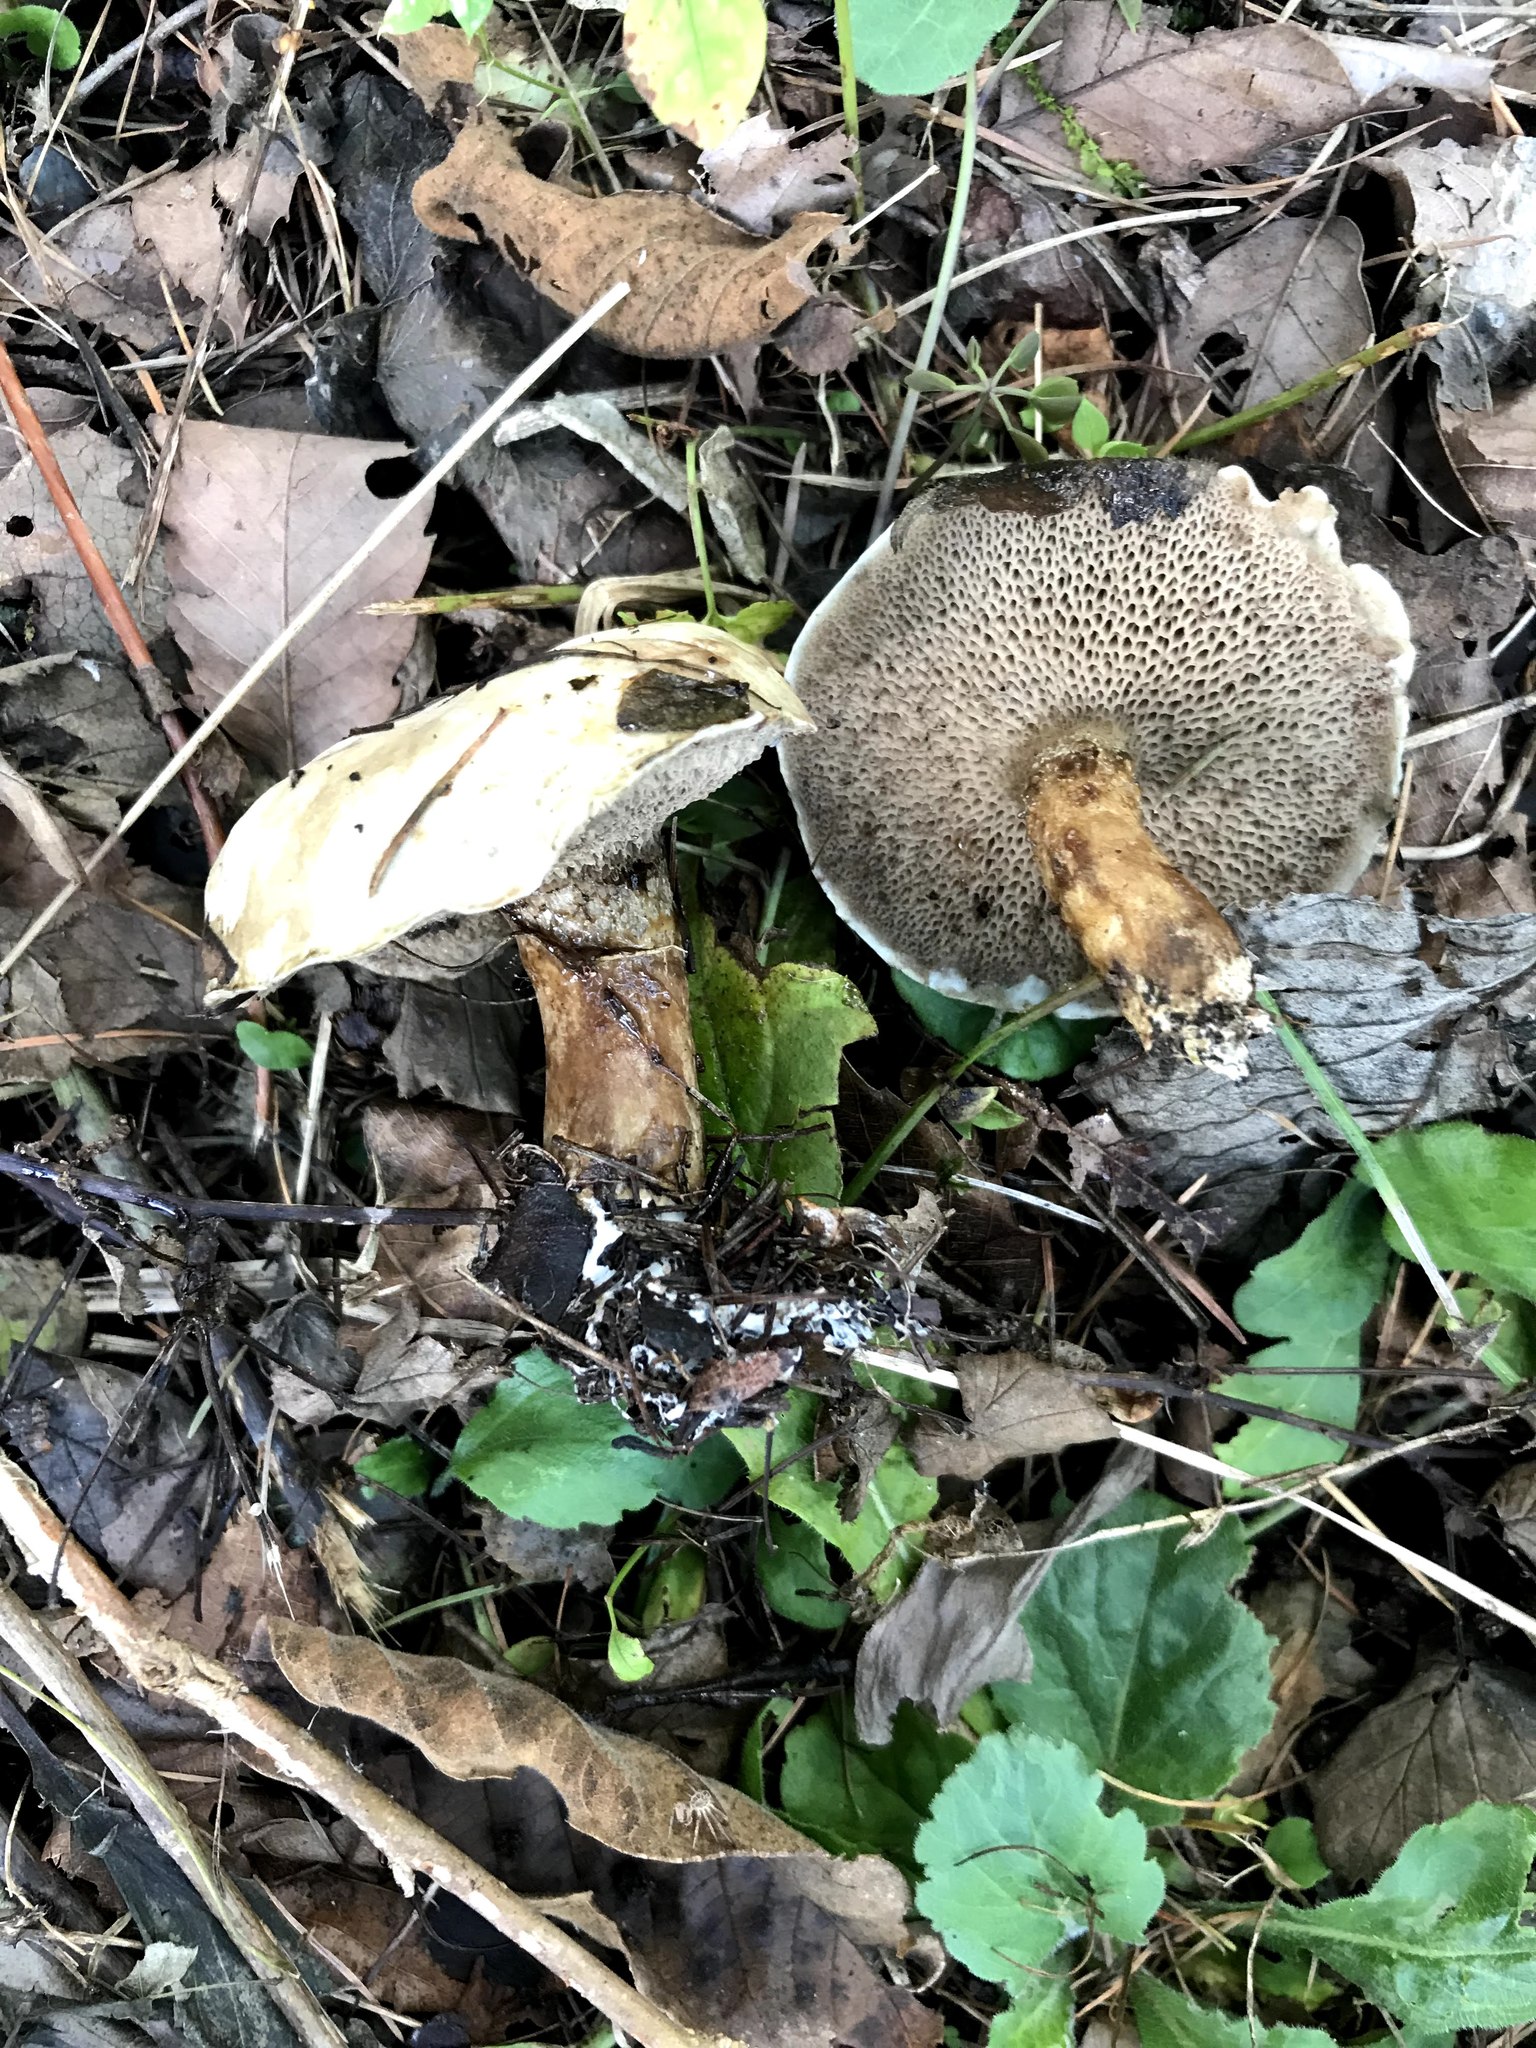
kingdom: Fungi
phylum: Basidiomycota
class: Agaricomycetes
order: Boletales
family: Suillaceae
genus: Suillus
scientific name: Suillus viscidus
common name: Sticky bolete
